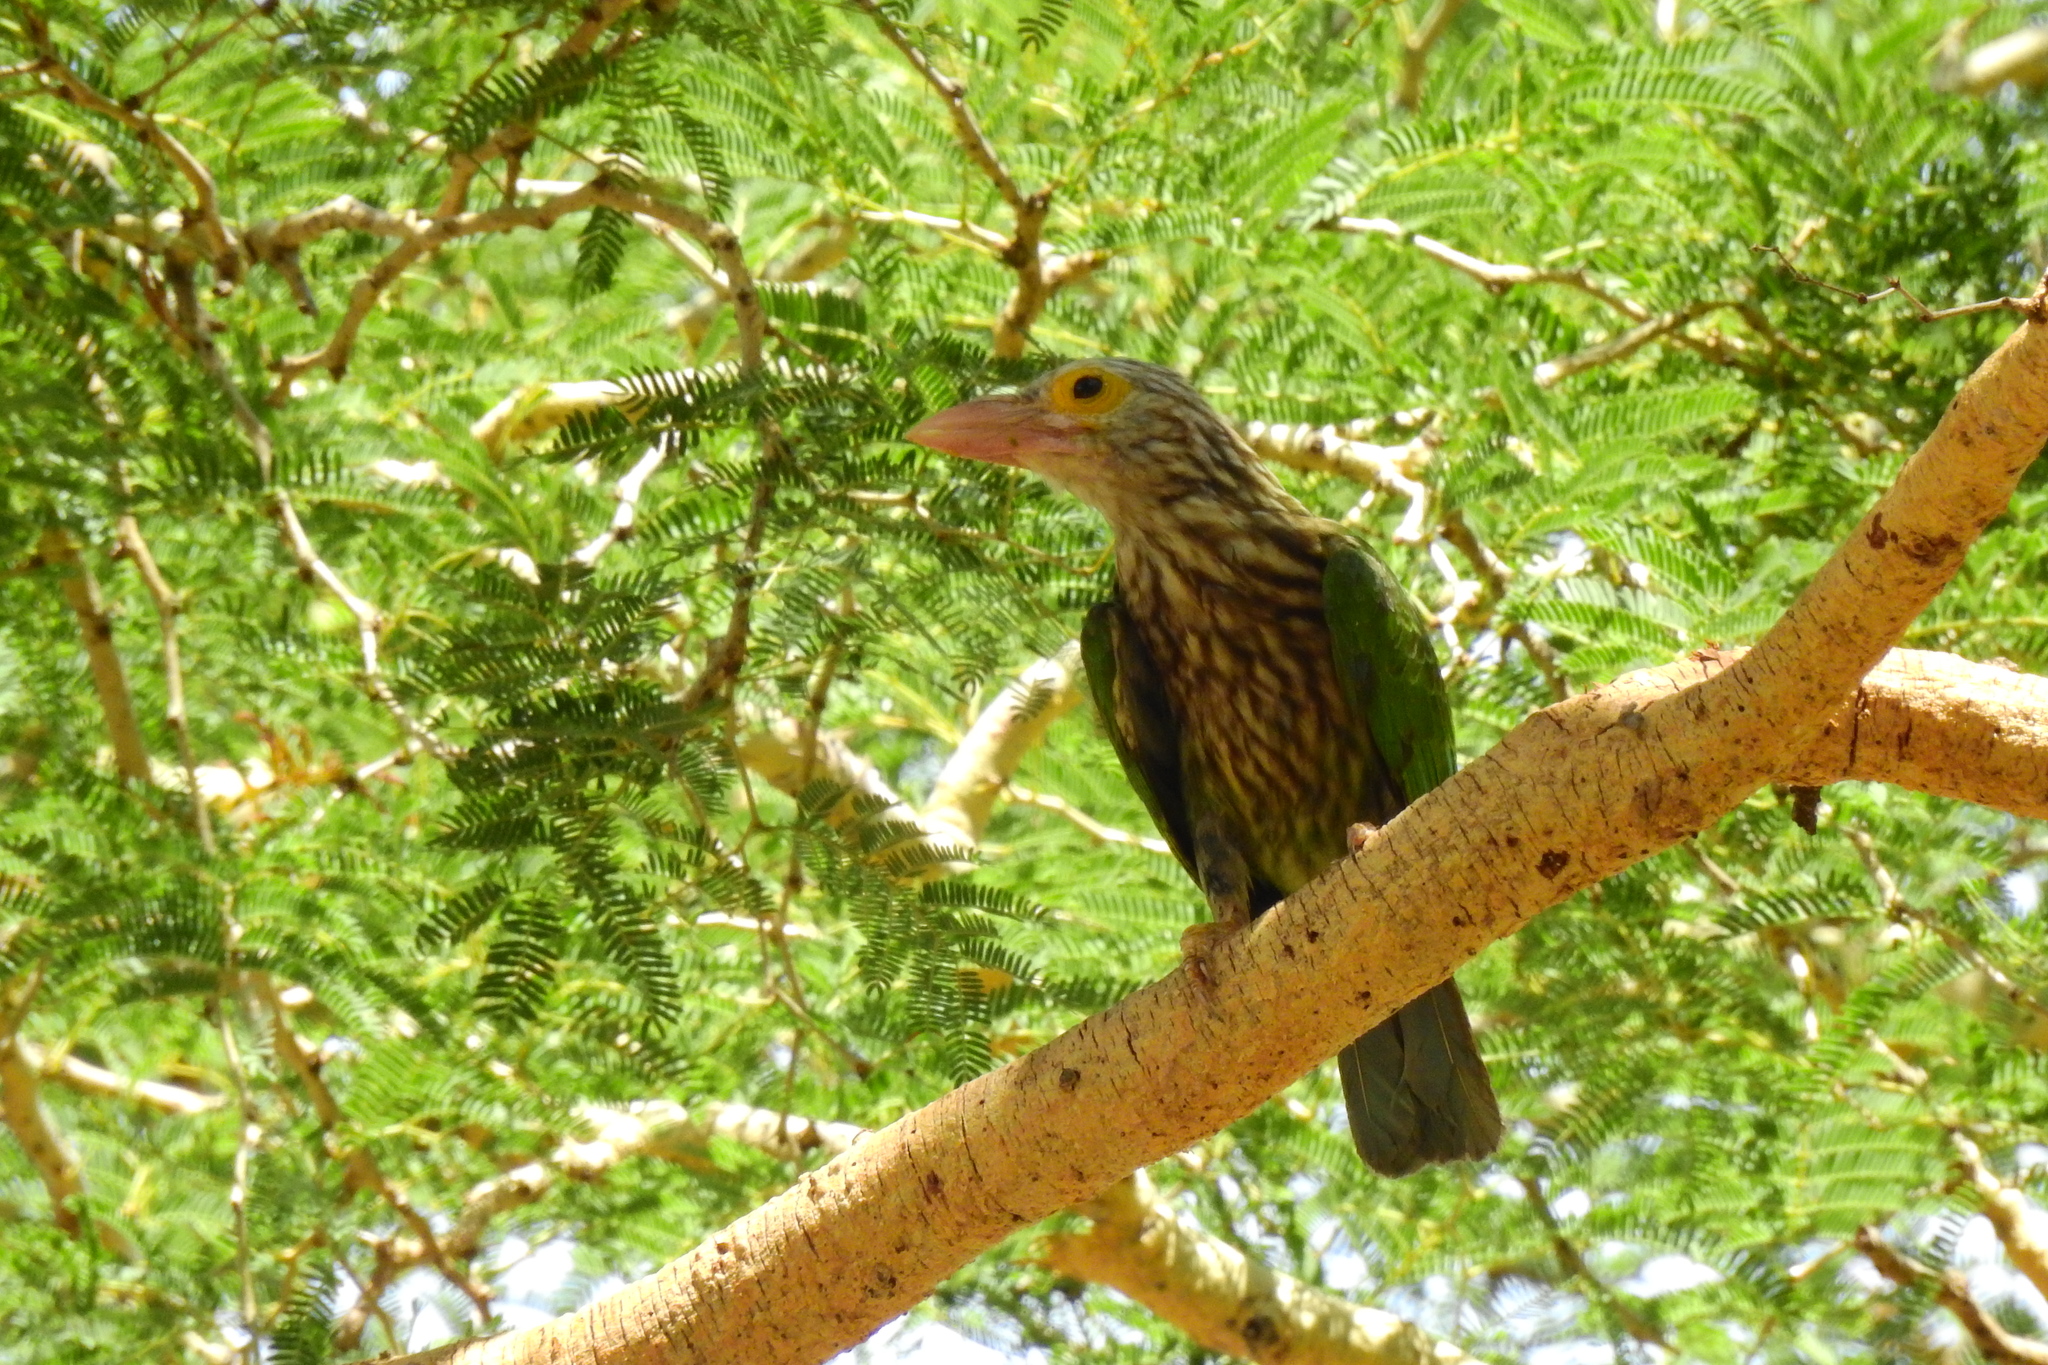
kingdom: Animalia
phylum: Chordata
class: Aves
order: Piciformes
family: Megalaimidae
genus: Psilopogon
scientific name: Psilopogon lineatus
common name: Lineated barbet
